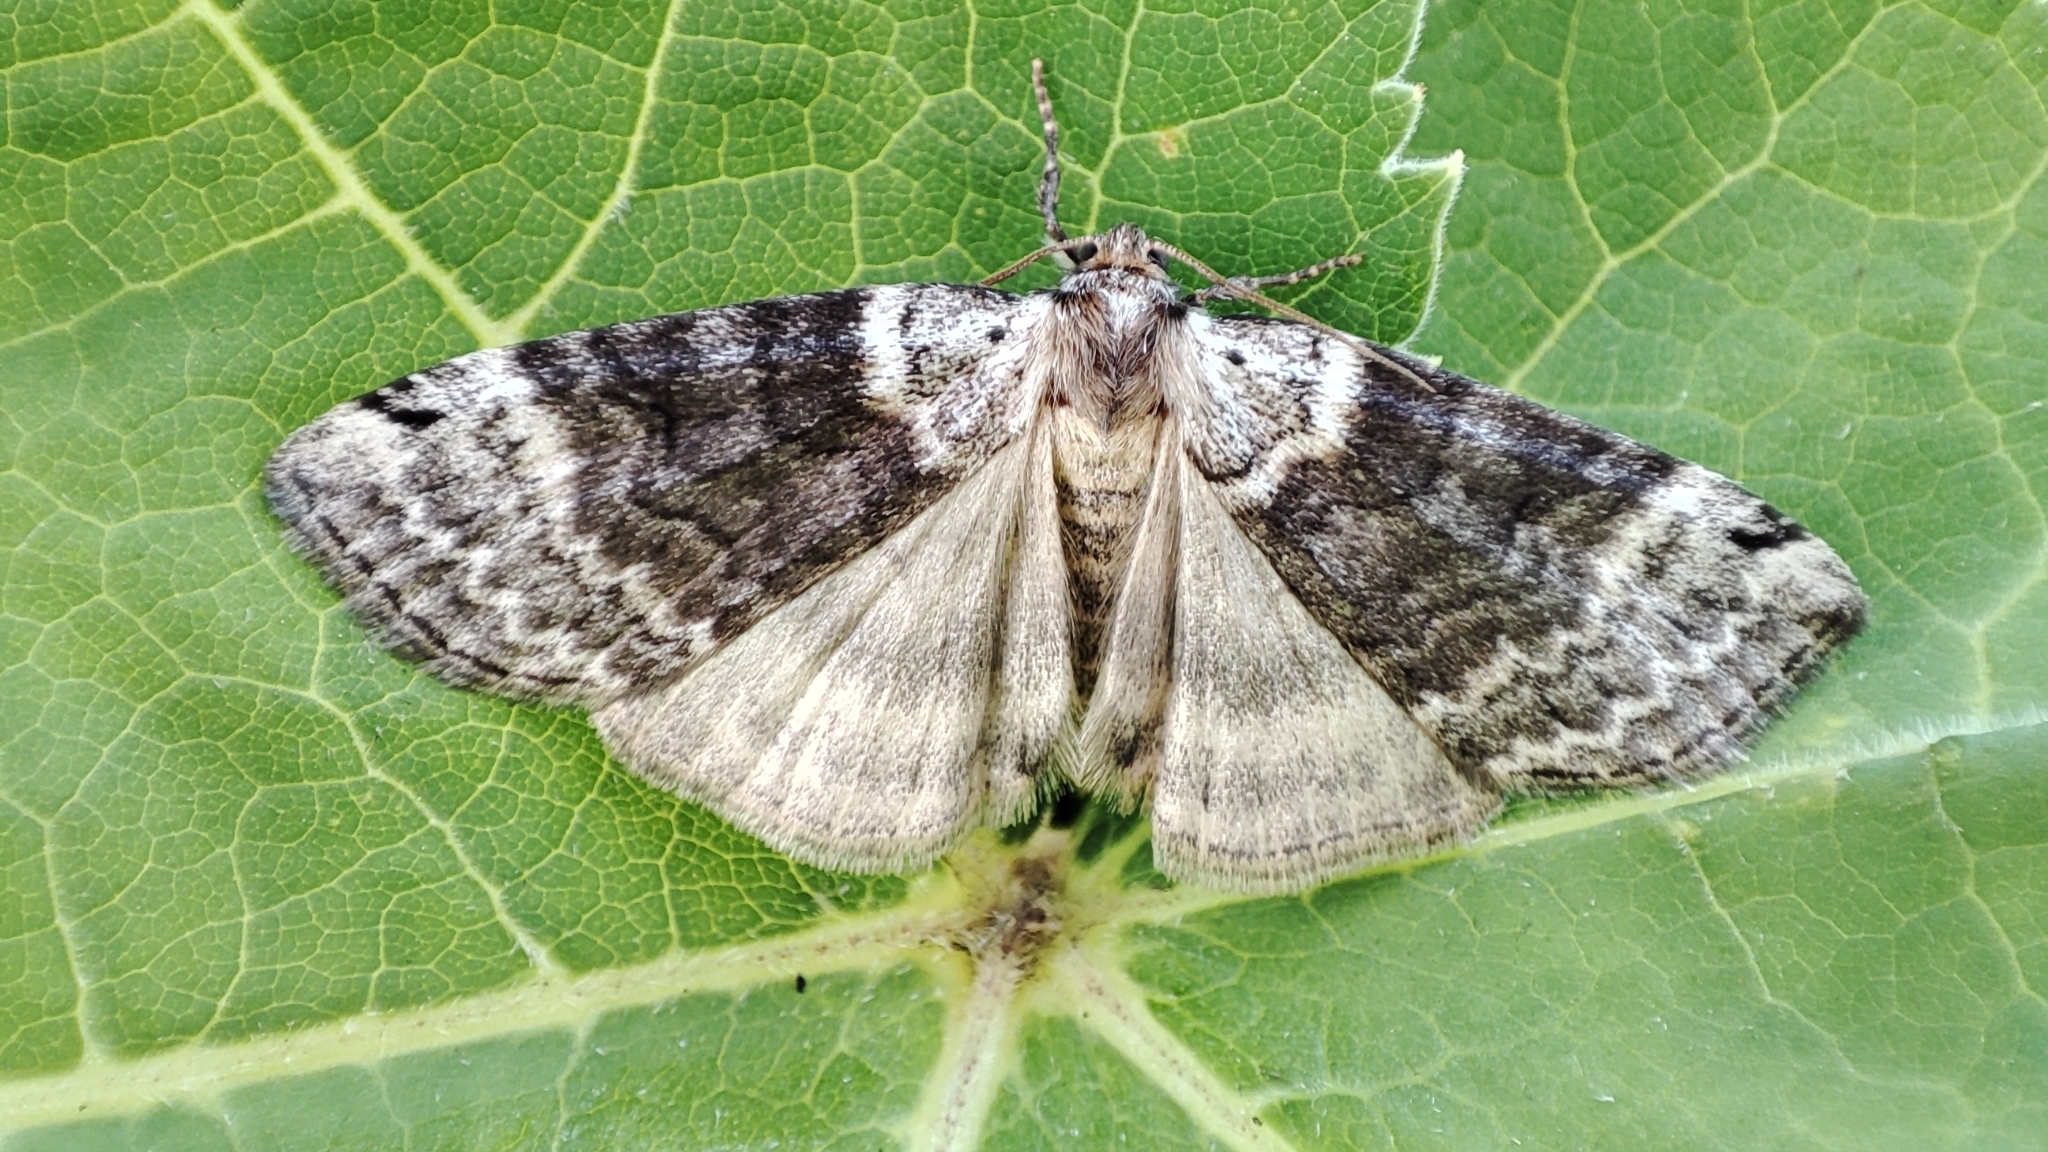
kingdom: Animalia
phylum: Arthropoda
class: Insecta
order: Lepidoptera
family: Drepanidae
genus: Tetheella
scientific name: Tetheella fluctuosa
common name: Satin lutestring
